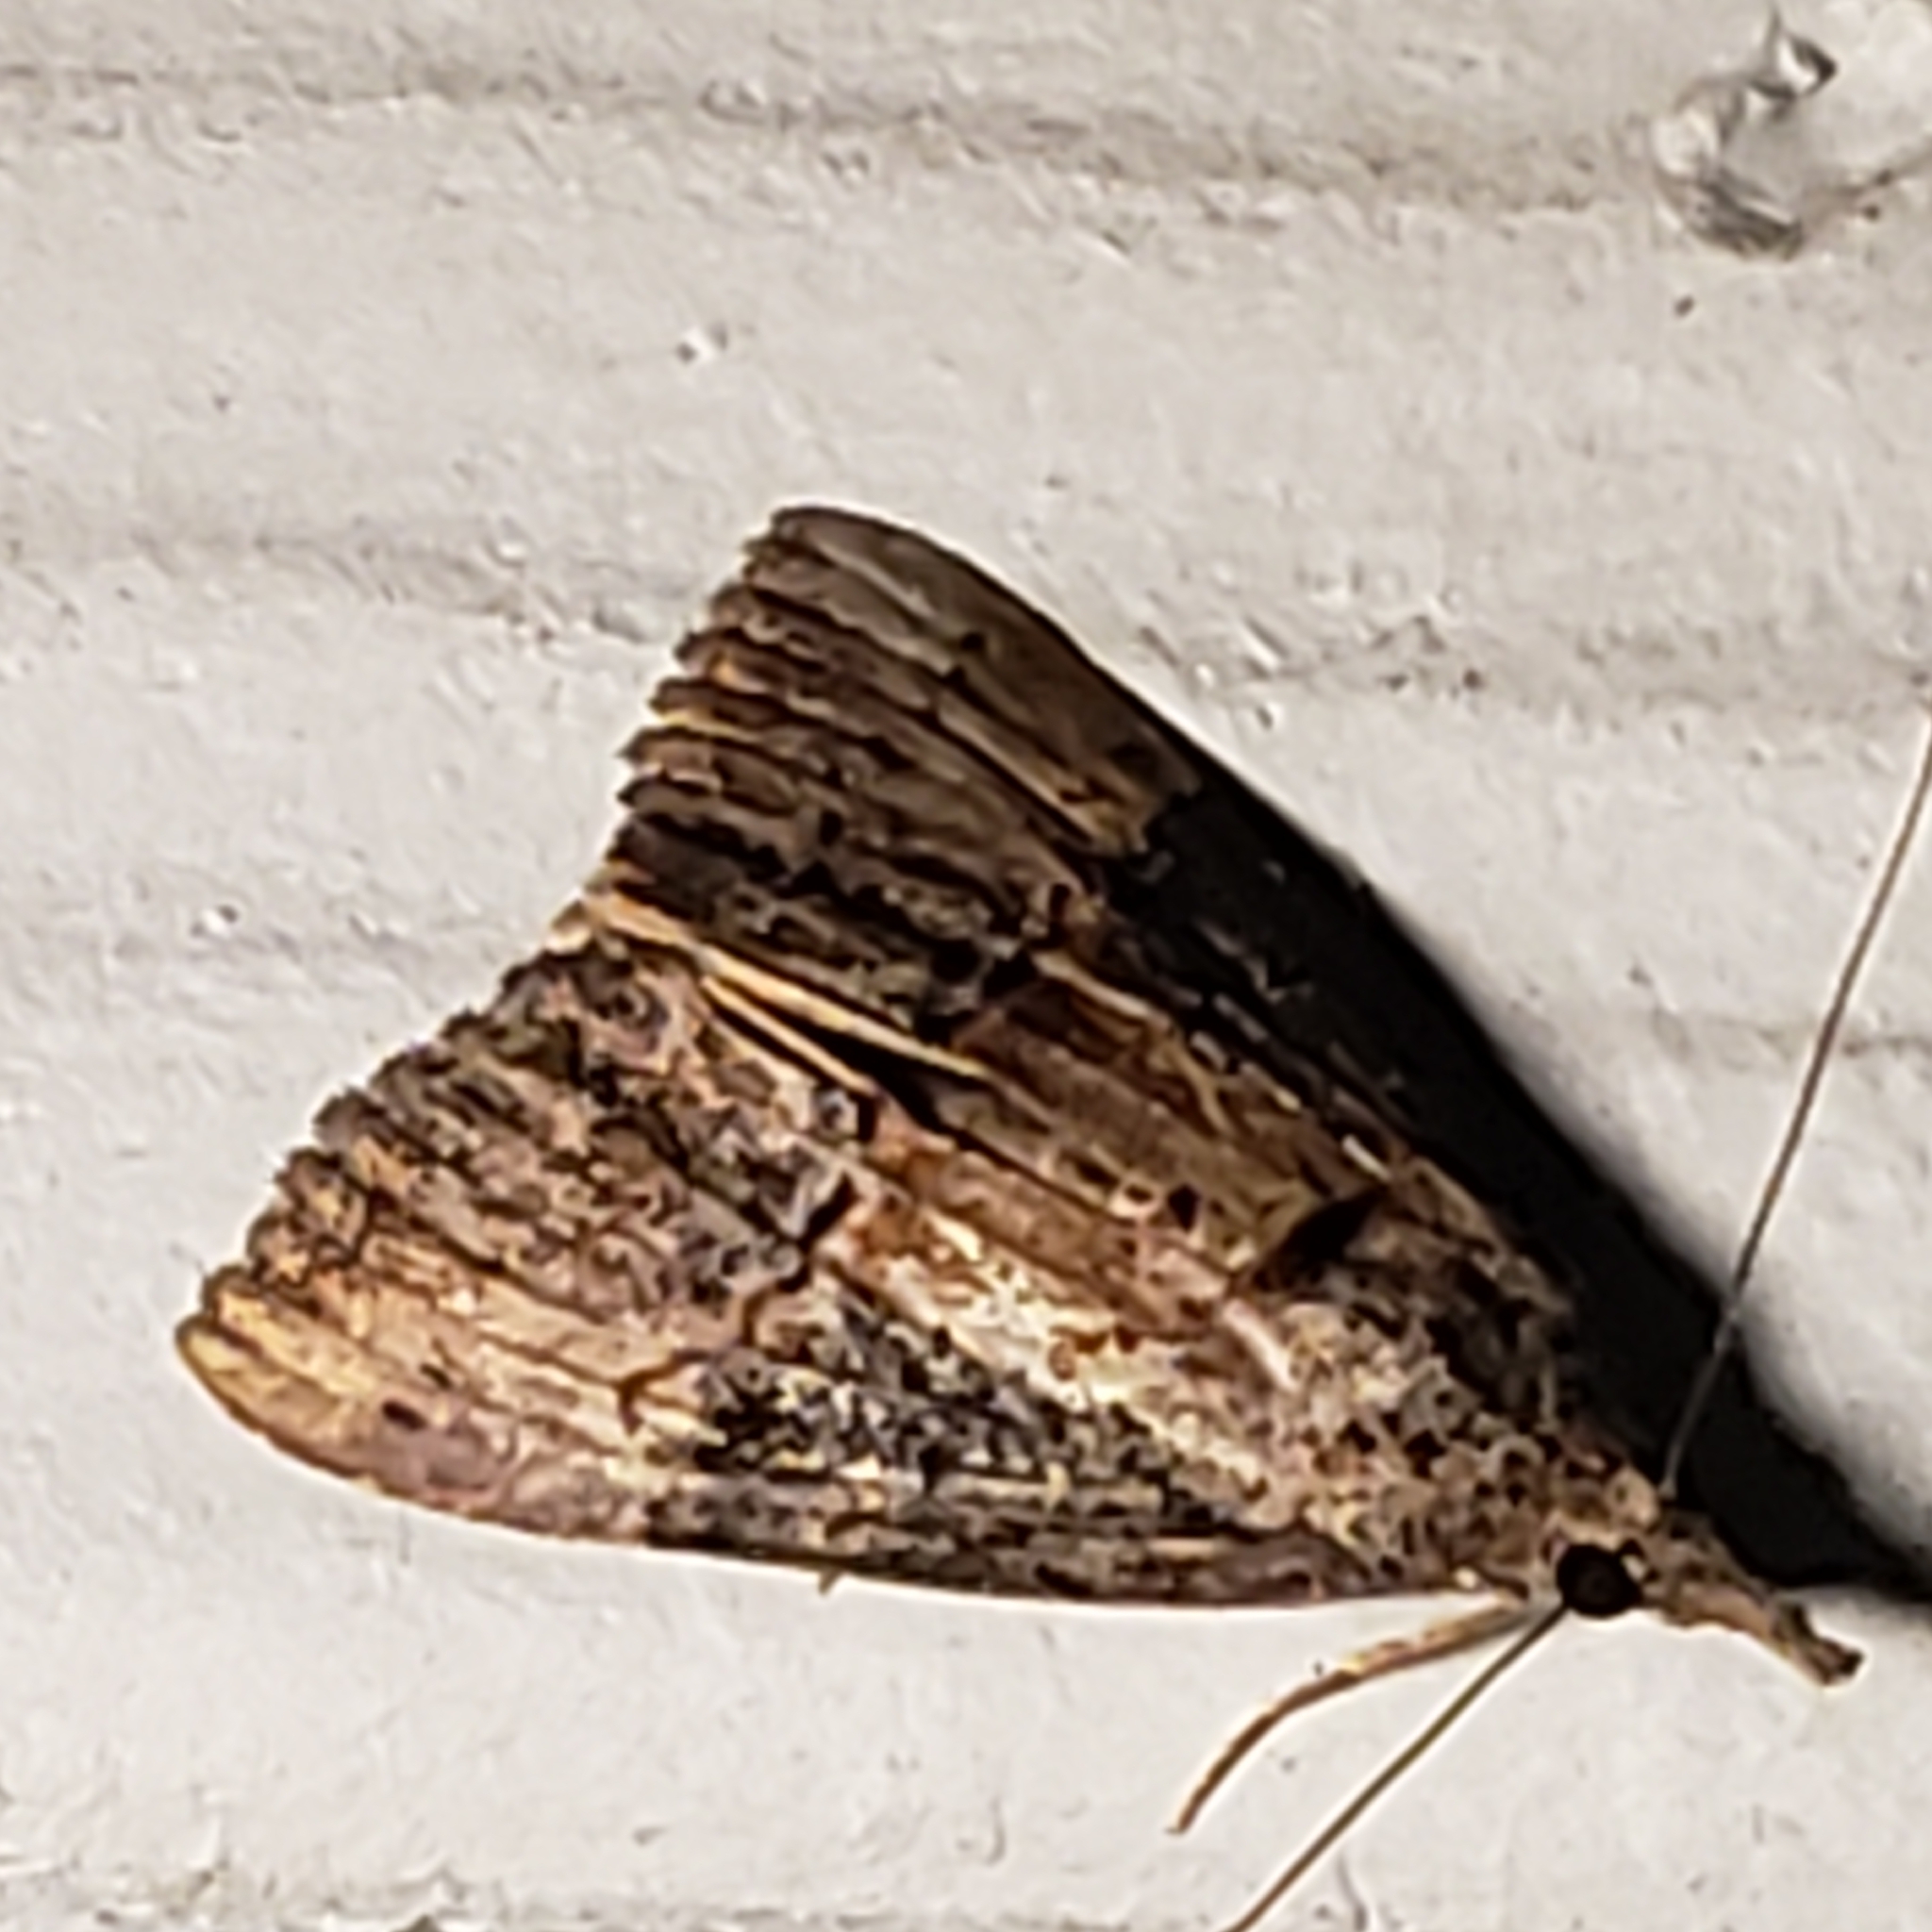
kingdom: Animalia
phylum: Arthropoda
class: Insecta
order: Lepidoptera
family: Erebidae
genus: Hypena
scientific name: Hypena scabra
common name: Green cloverworm
